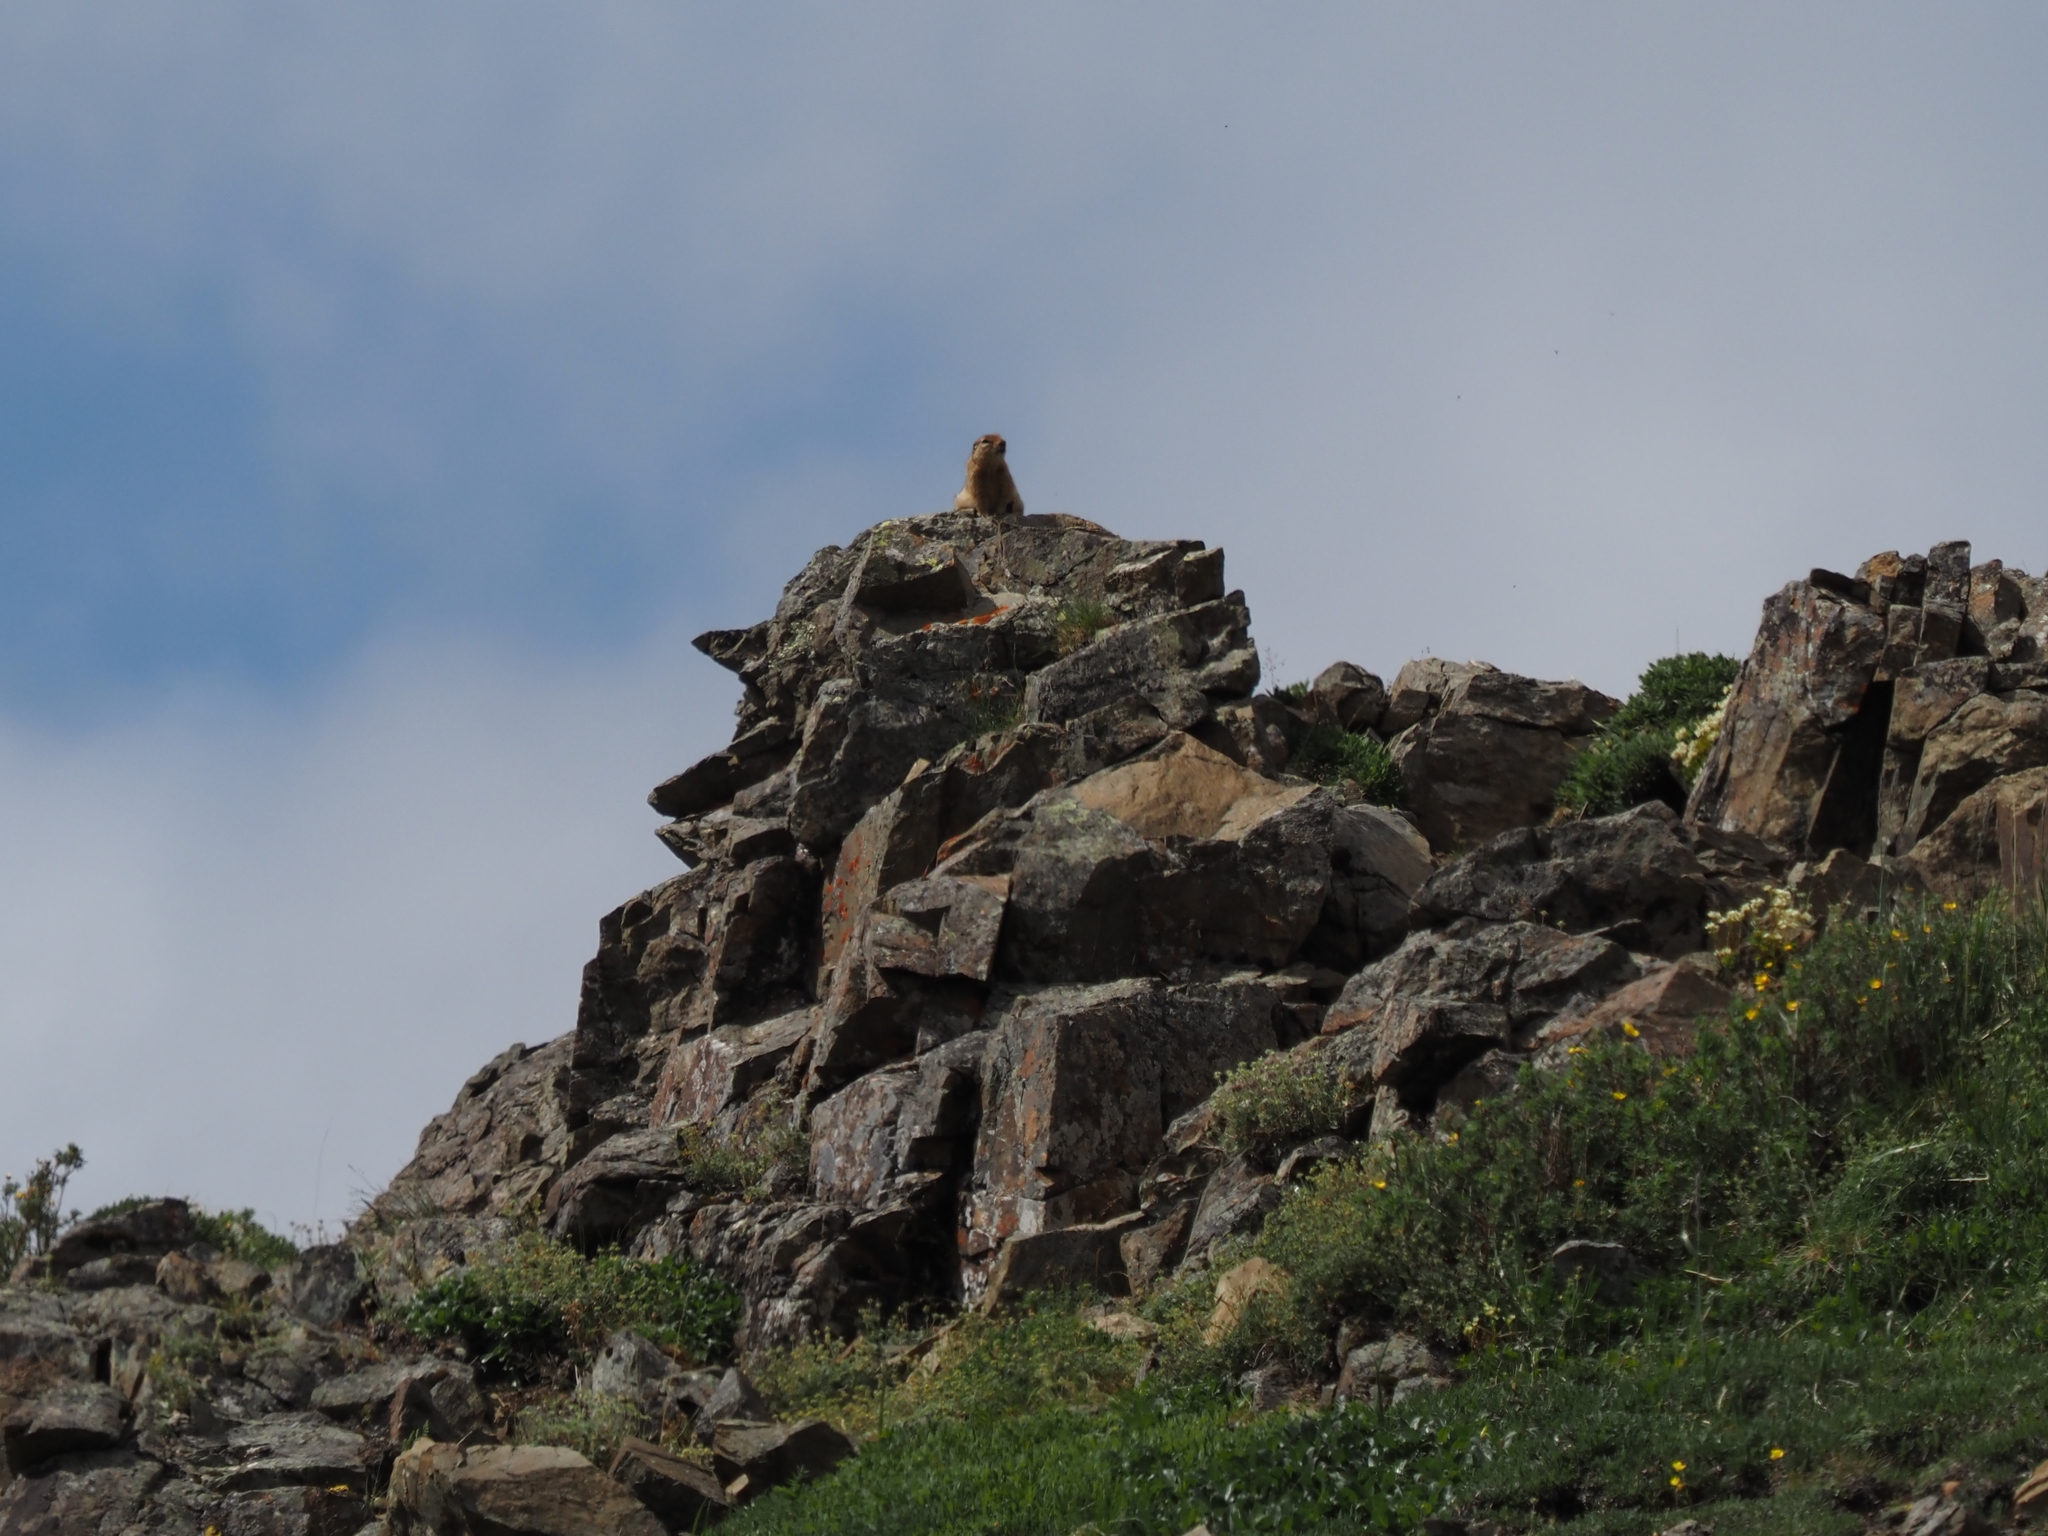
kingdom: Animalia
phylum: Chordata
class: Mammalia
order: Rodentia
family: Sciuridae
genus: Urocitellus
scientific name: Urocitellus parryii
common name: Arctic ground squirrel
